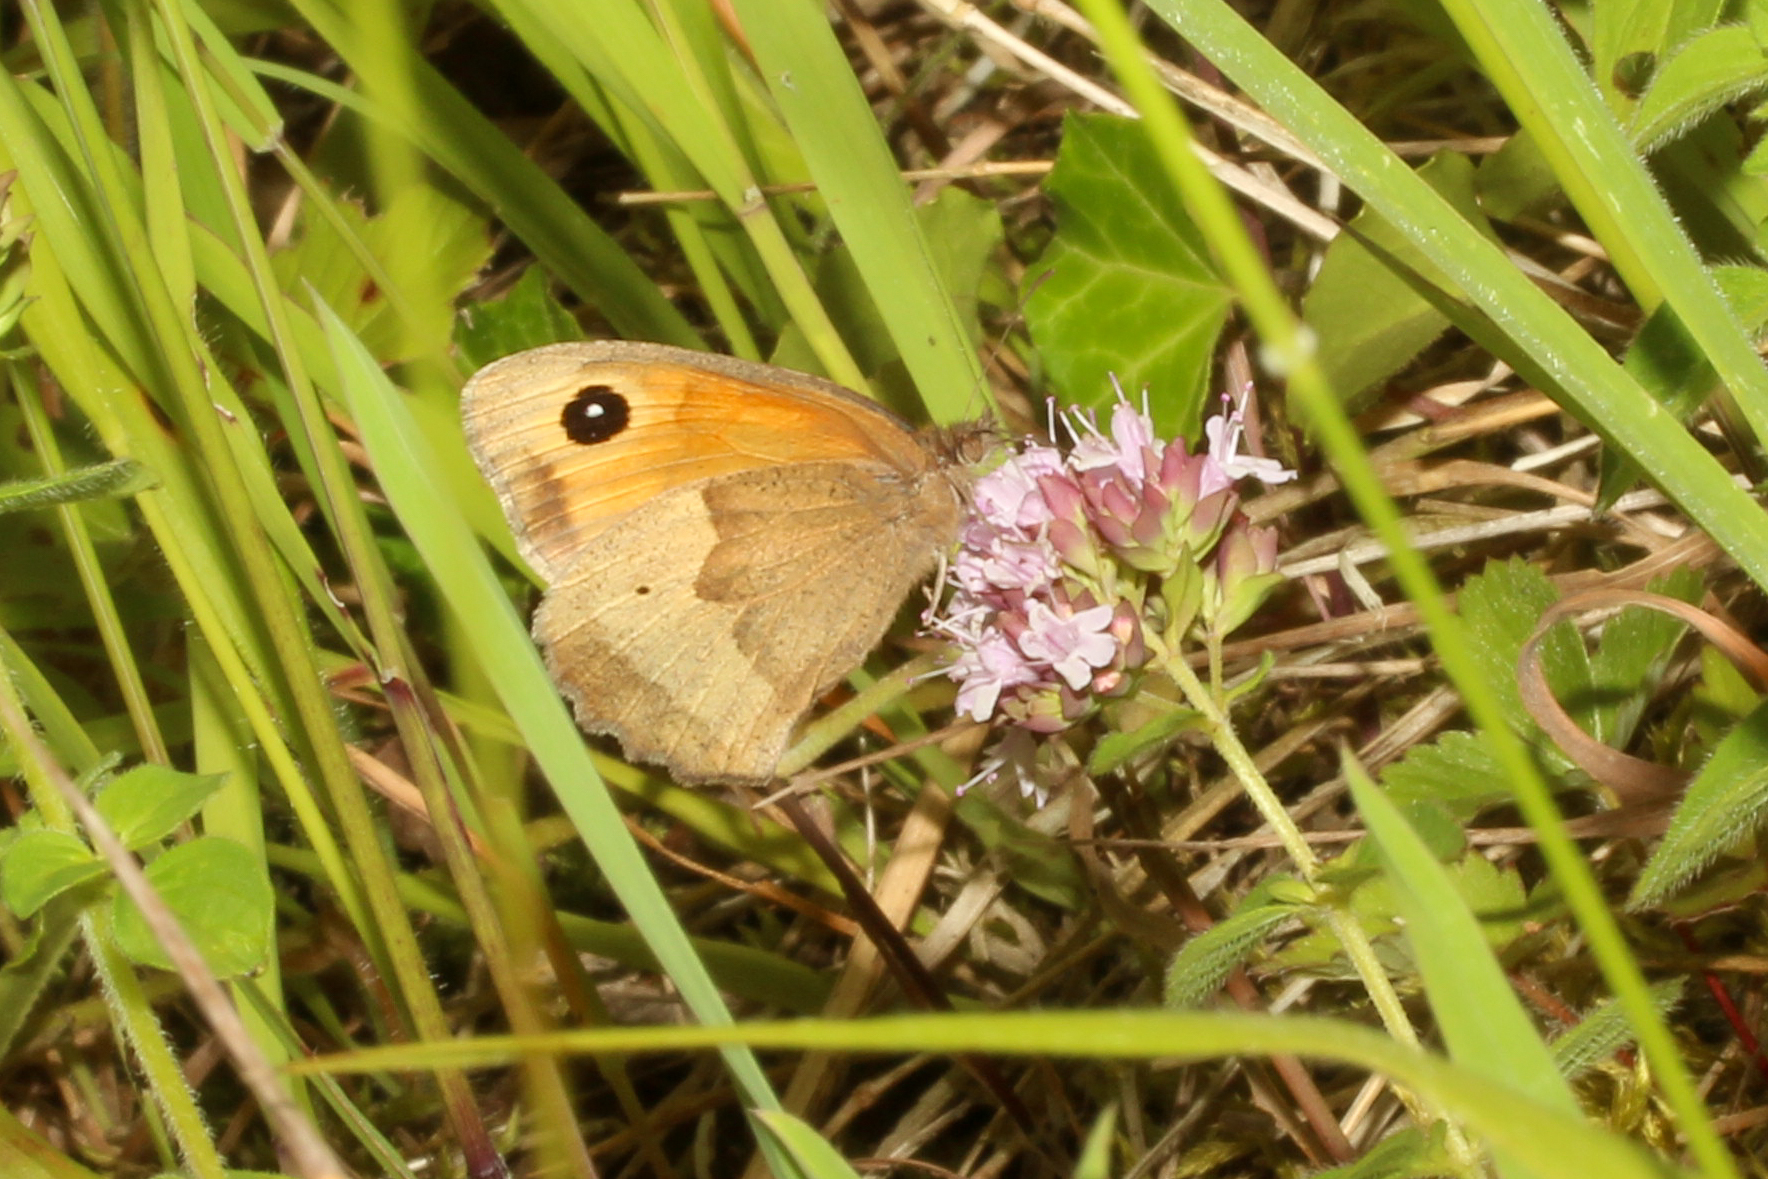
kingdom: Animalia
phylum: Arthropoda
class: Insecta
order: Lepidoptera
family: Nymphalidae
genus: Maniola
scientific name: Maniola jurtina
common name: Meadow brown
